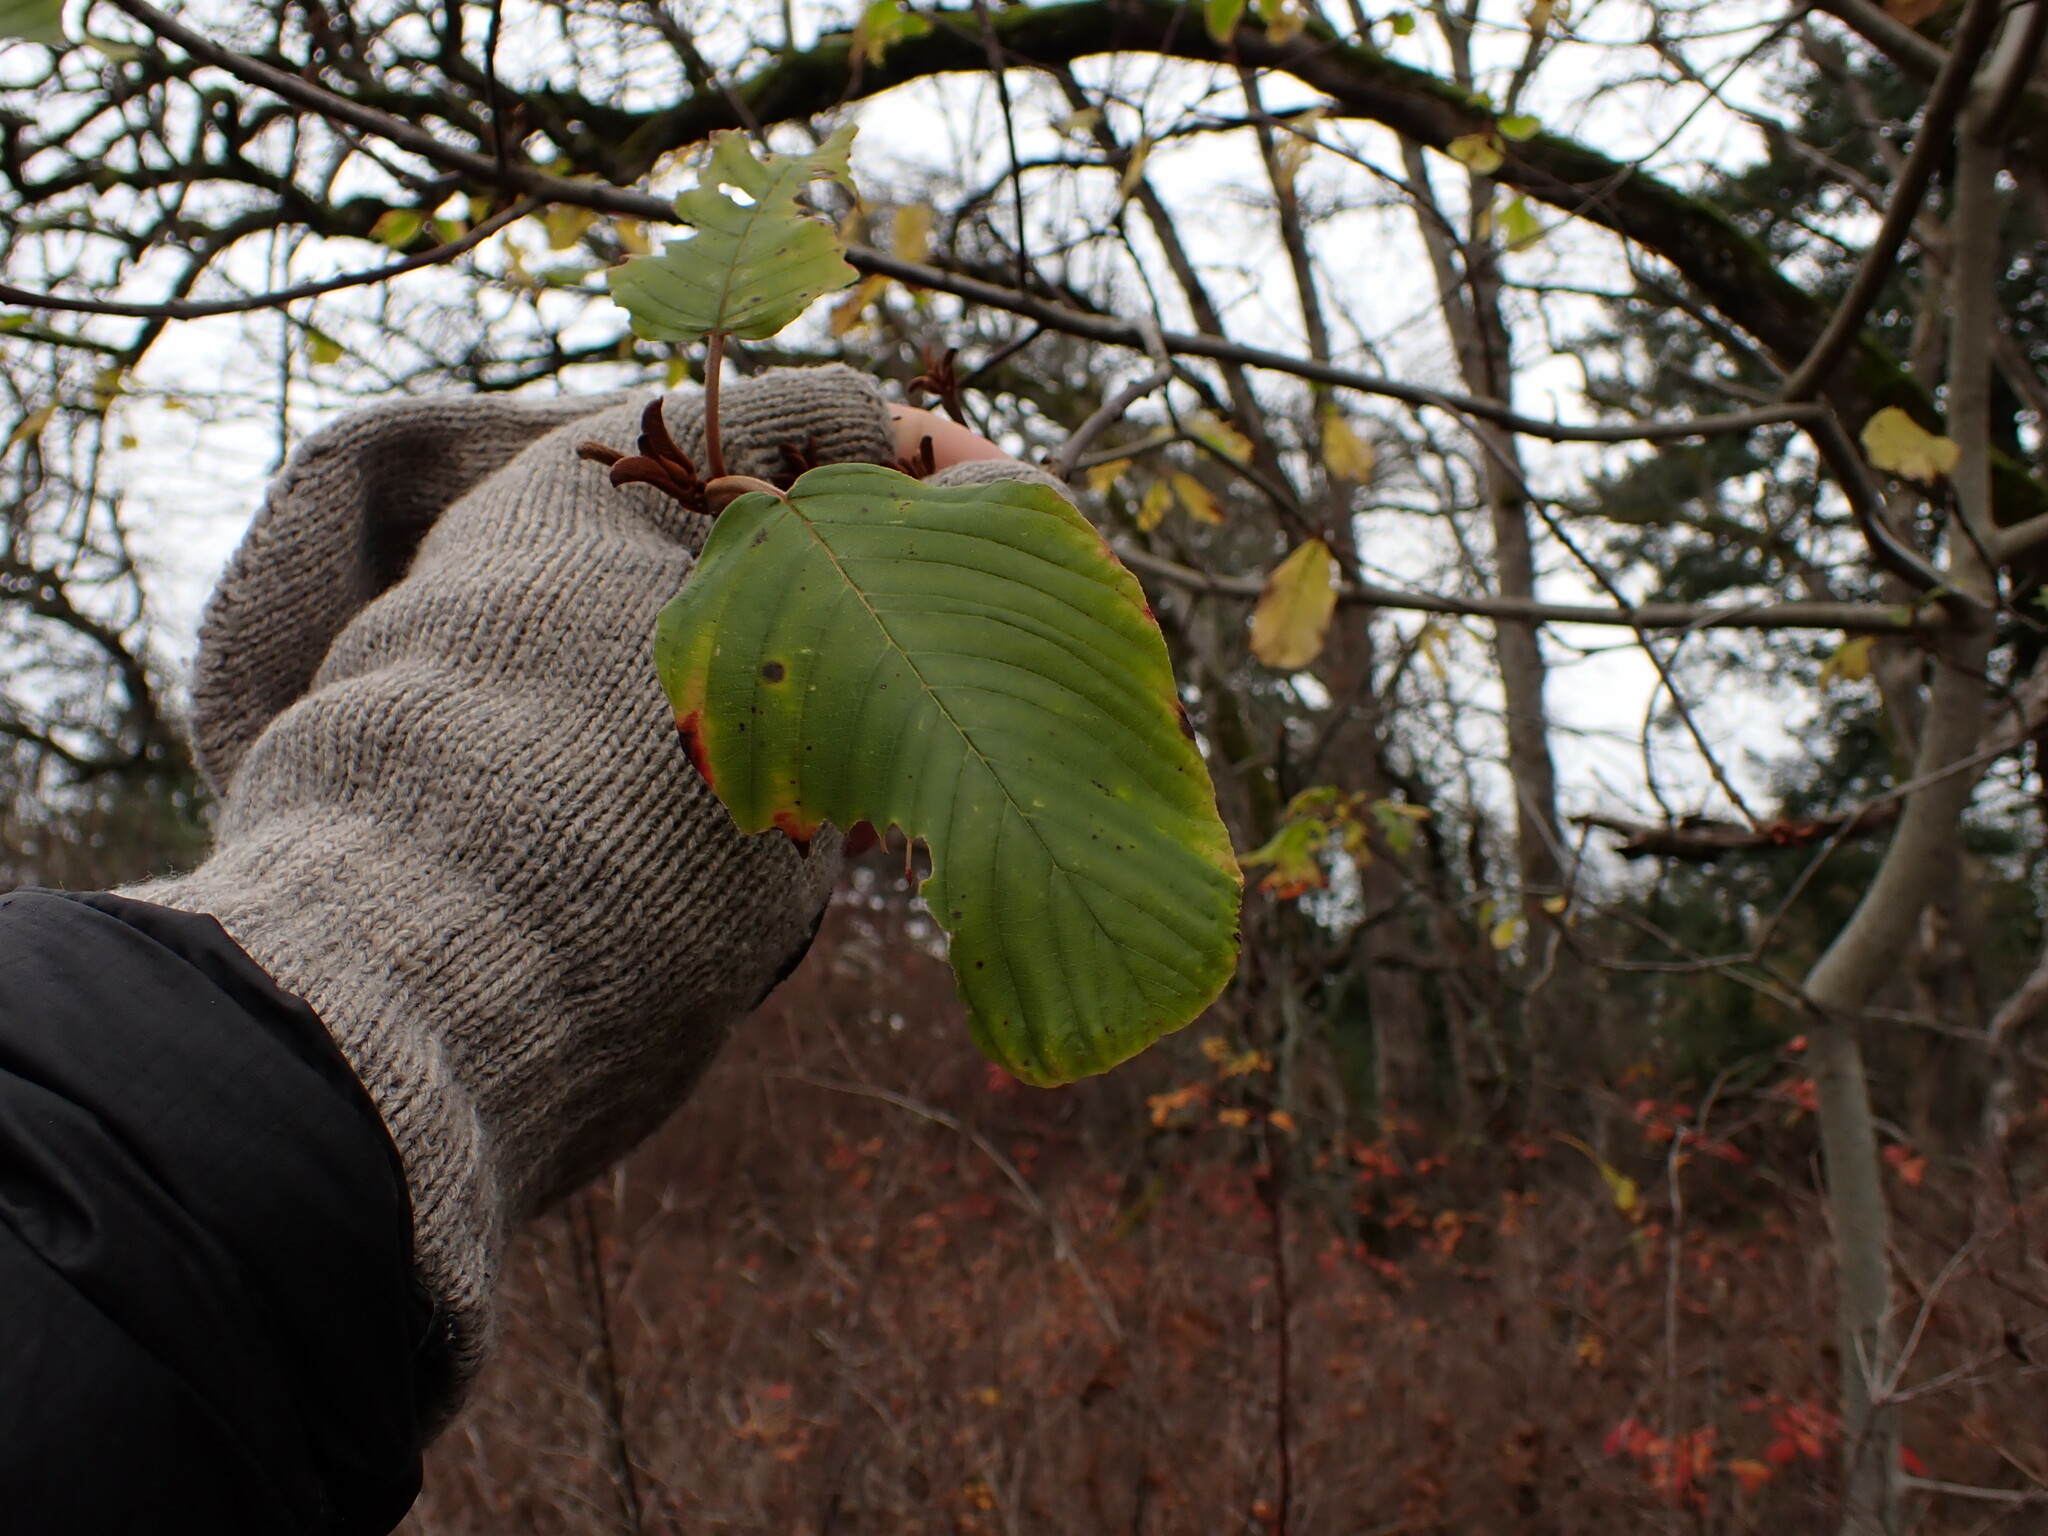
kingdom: Plantae
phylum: Tracheophyta
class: Magnoliopsida
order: Rosales
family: Rhamnaceae
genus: Frangula
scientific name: Frangula purshiana
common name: Cascara buckthorn
